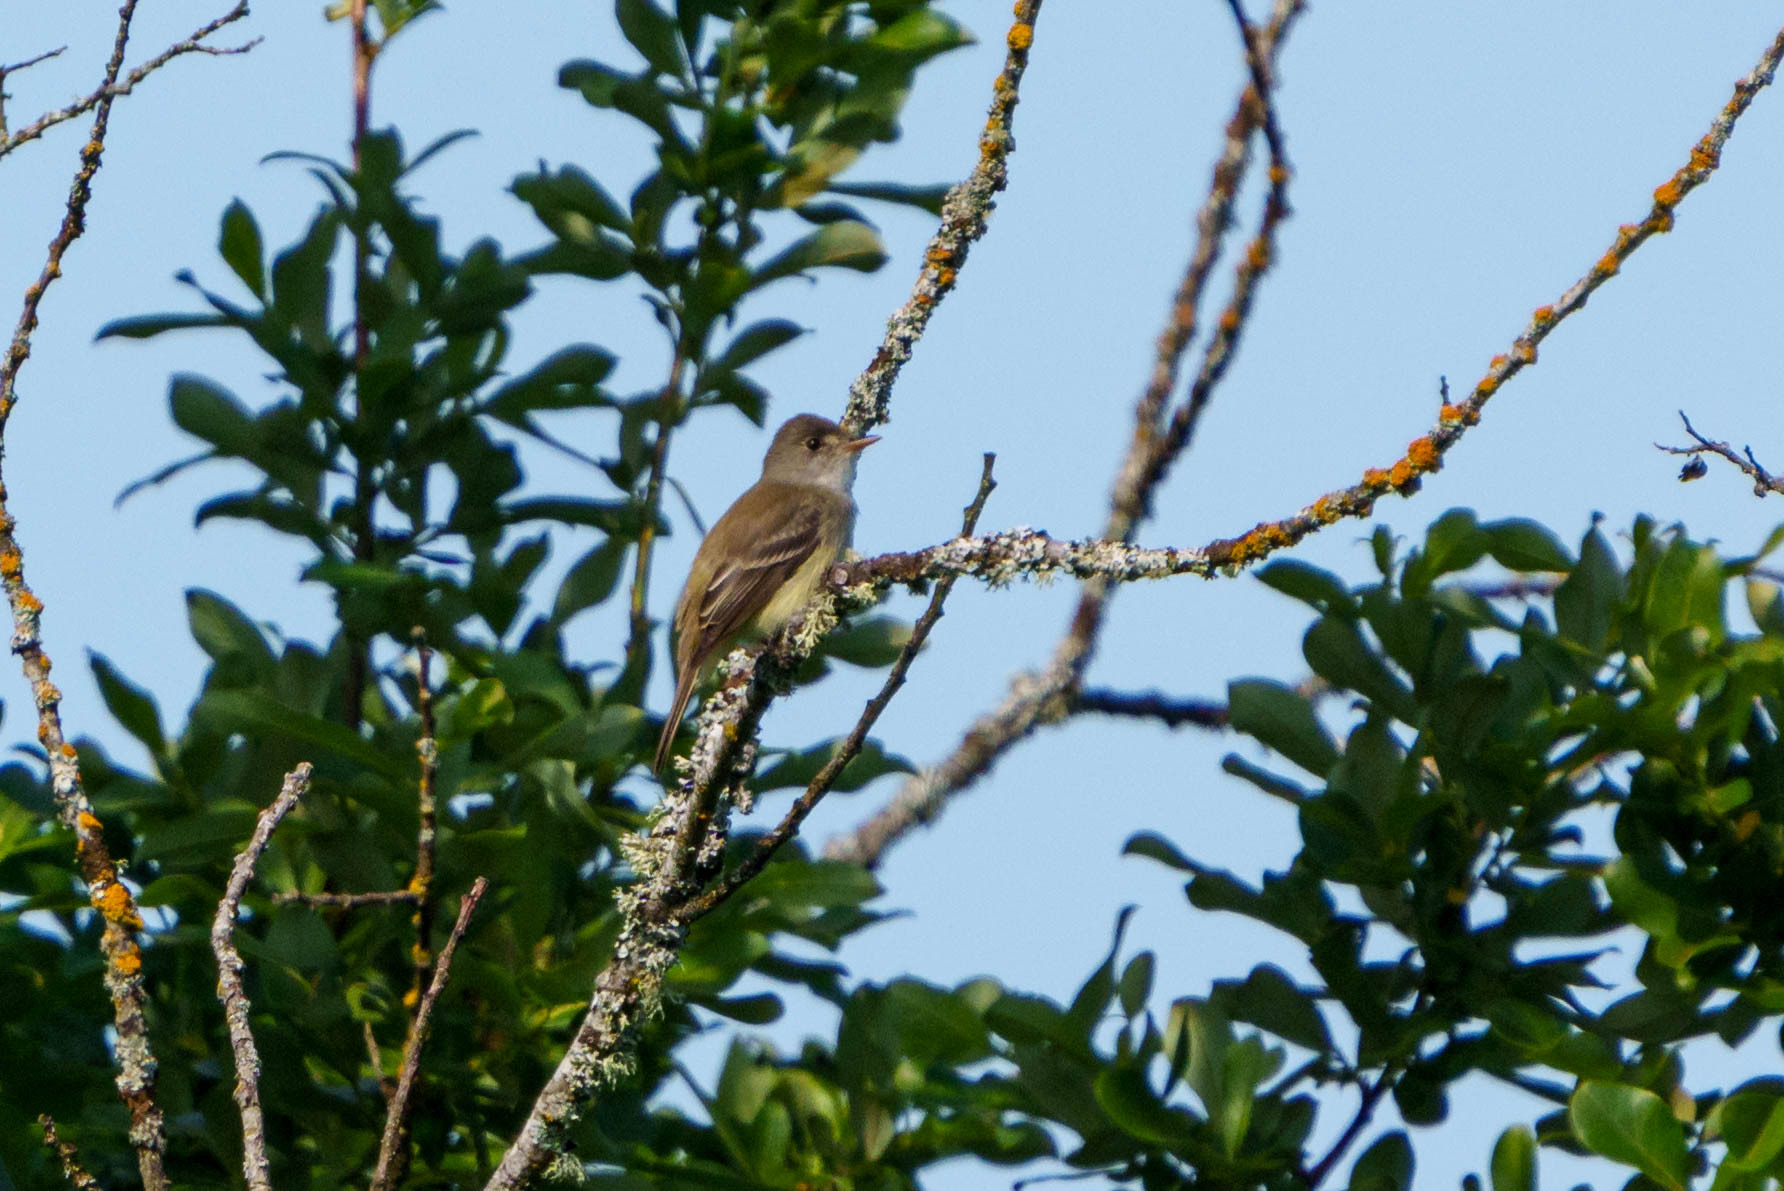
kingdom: Animalia
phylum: Chordata
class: Aves
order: Passeriformes
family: Tyrannidae
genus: Empidonax
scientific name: Empidonax traillii
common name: Willow flycatcher
